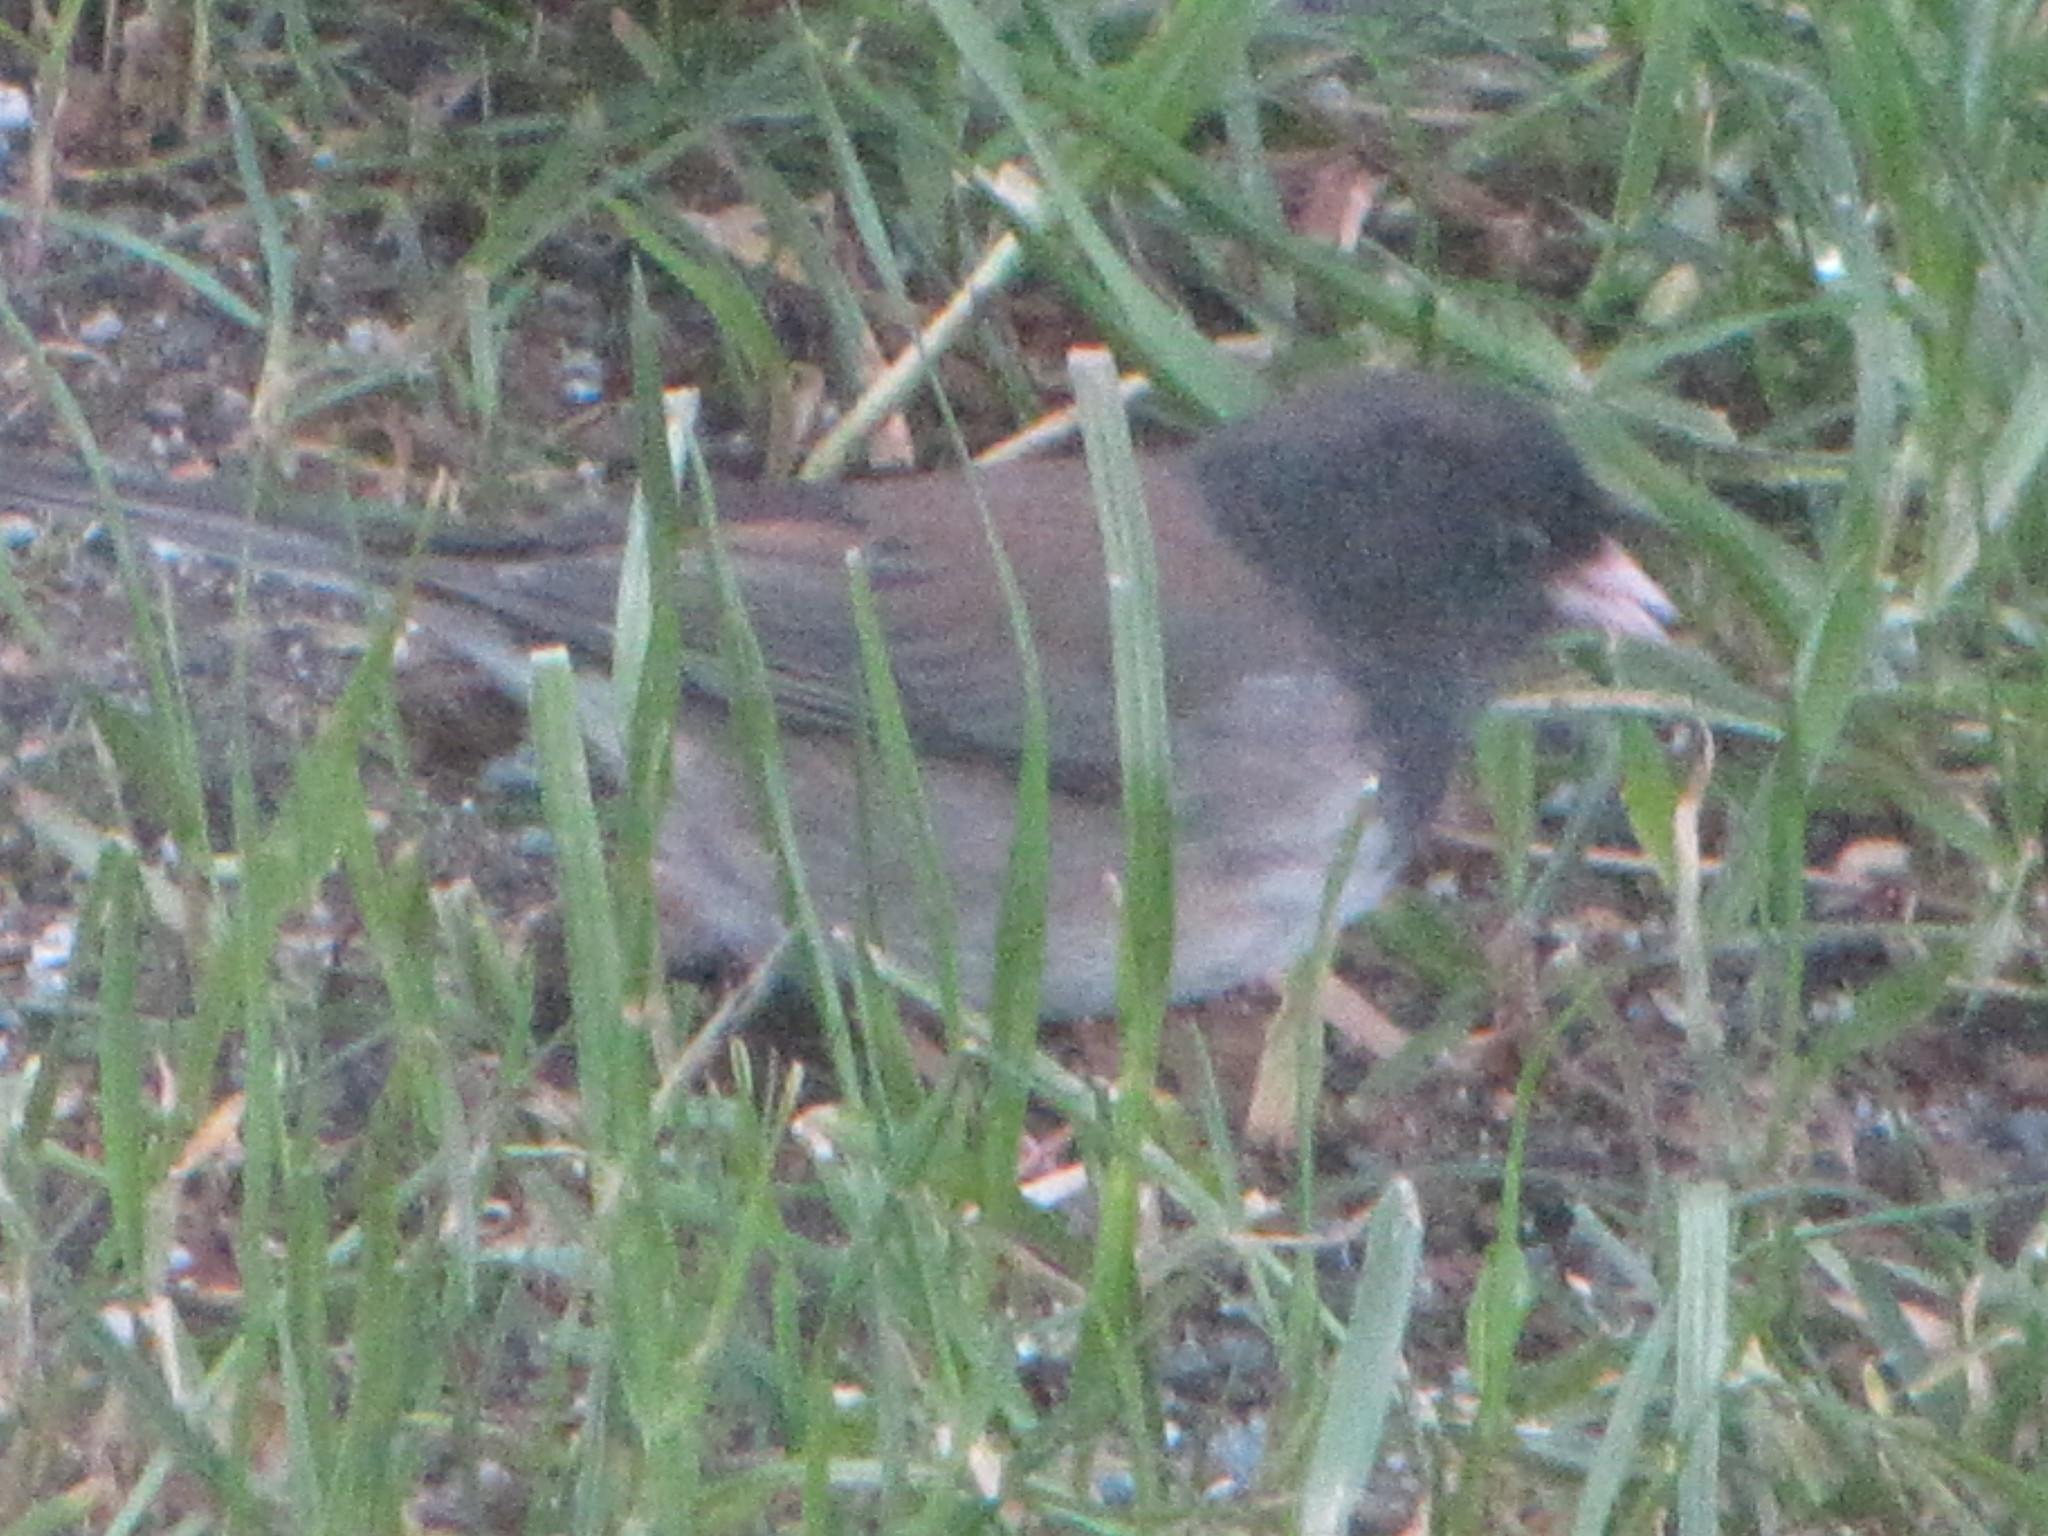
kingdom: Animalia
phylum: Chordata
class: Aves
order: Passeriformes
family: Passerellidae
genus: Junco
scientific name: Junco hyemalis
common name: Dark-eyed junco
